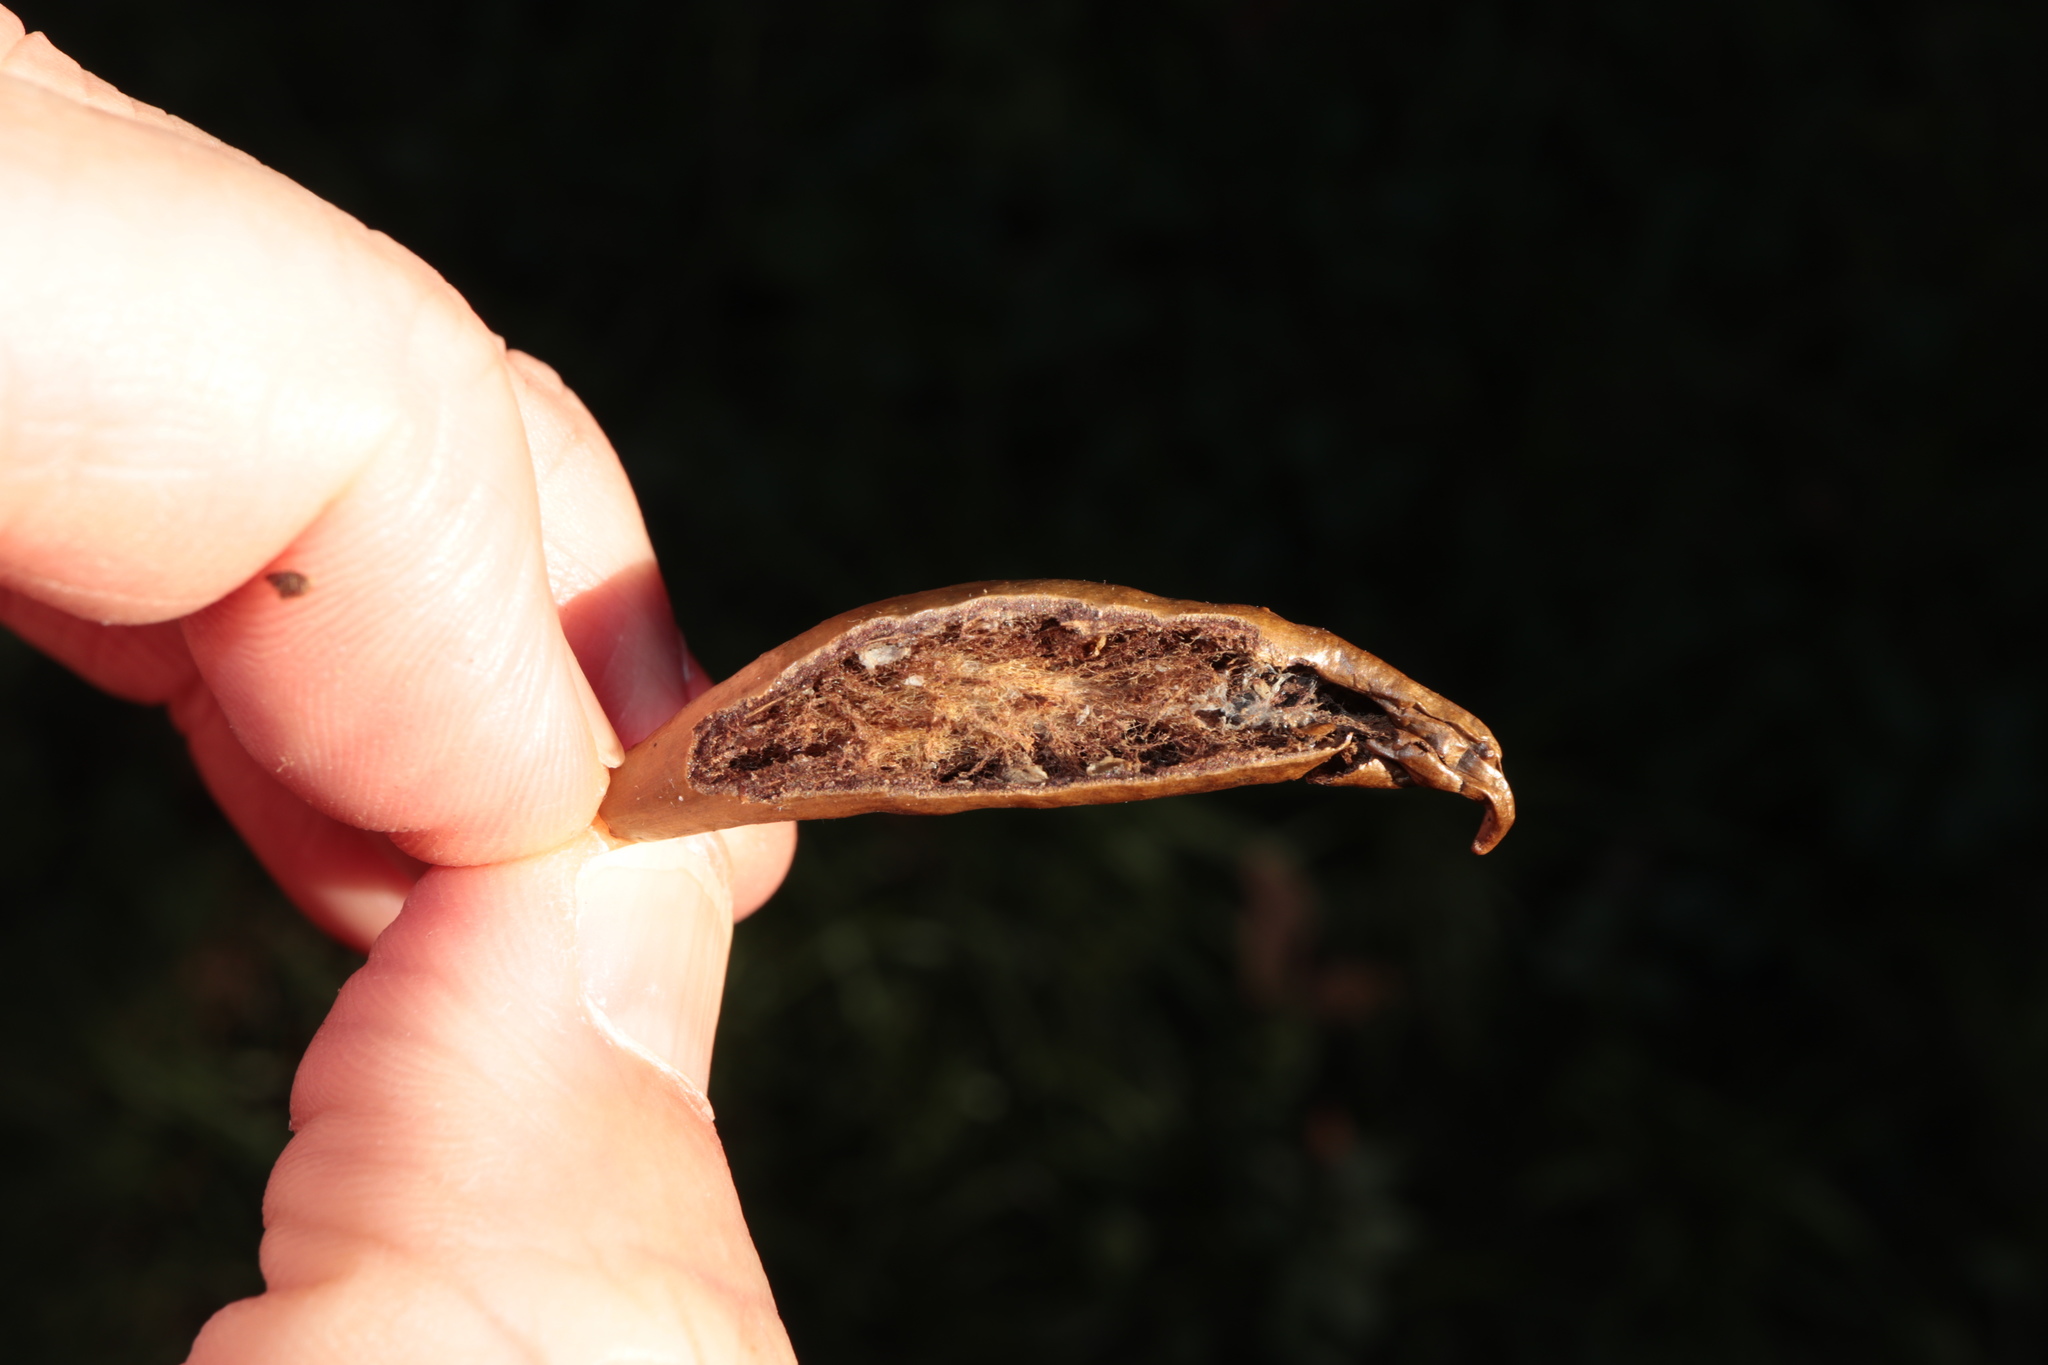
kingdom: Animalia
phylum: Arthropoda
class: Insecta
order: Hymenoptera
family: Cynipidae
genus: Amphibolips
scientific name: Amphibolips
